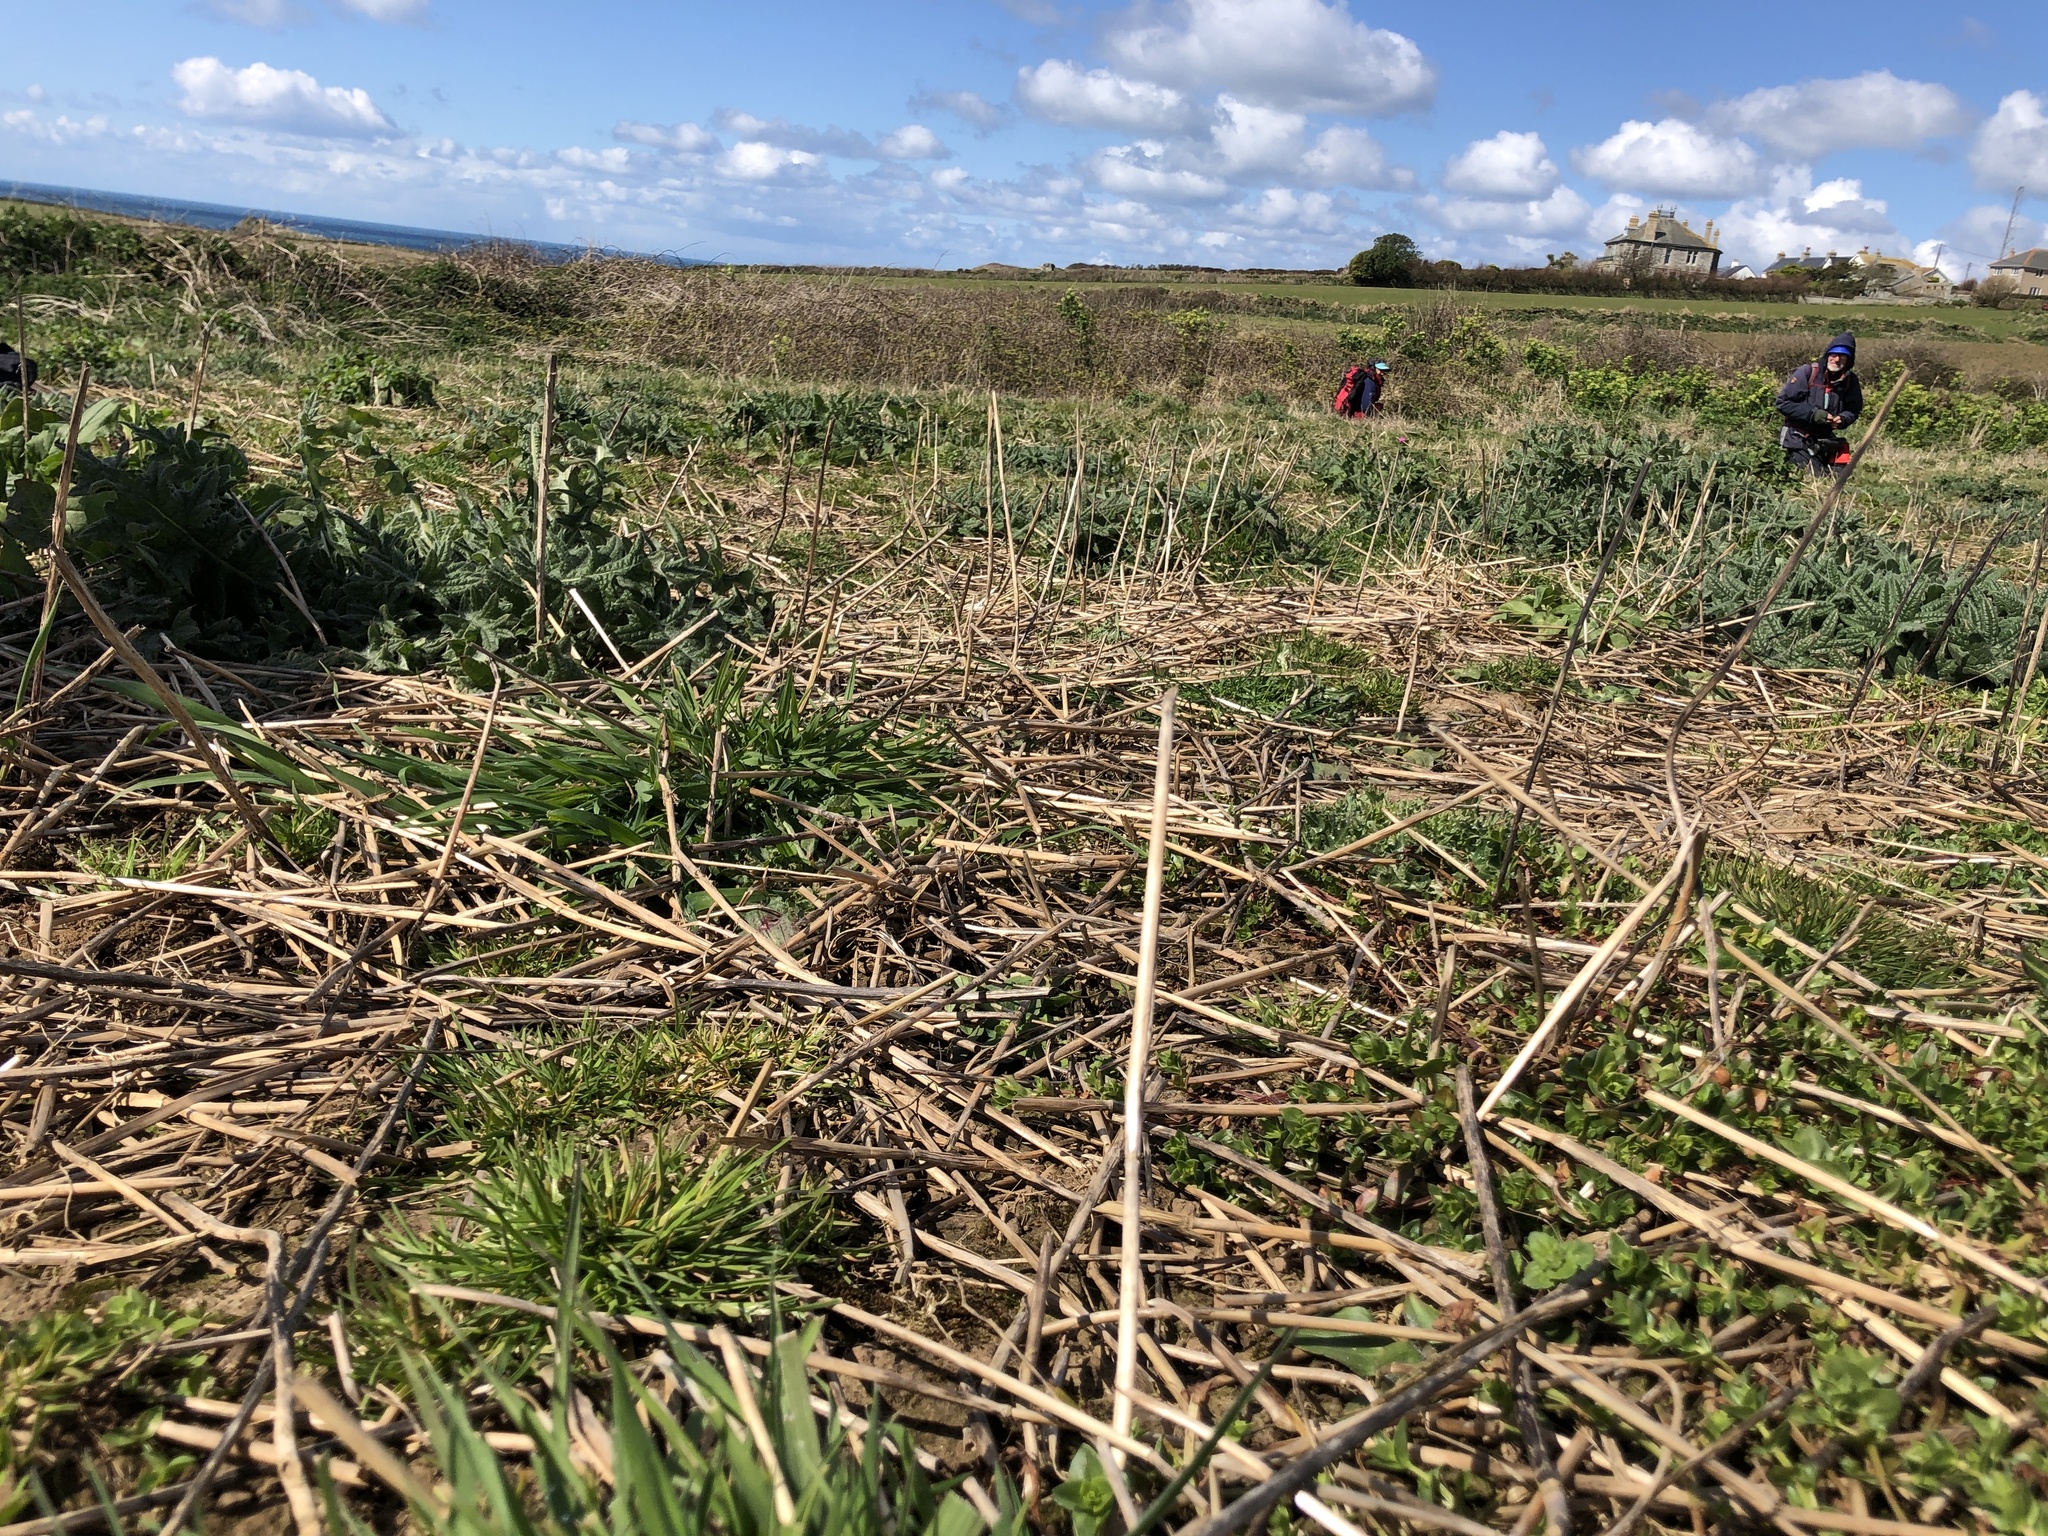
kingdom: Plantae
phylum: Bryophyta
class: Bryopsida
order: Dicranales
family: Dicranellaceae
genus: Dicranella
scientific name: Dicranella staphylina
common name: Field forklet moss
